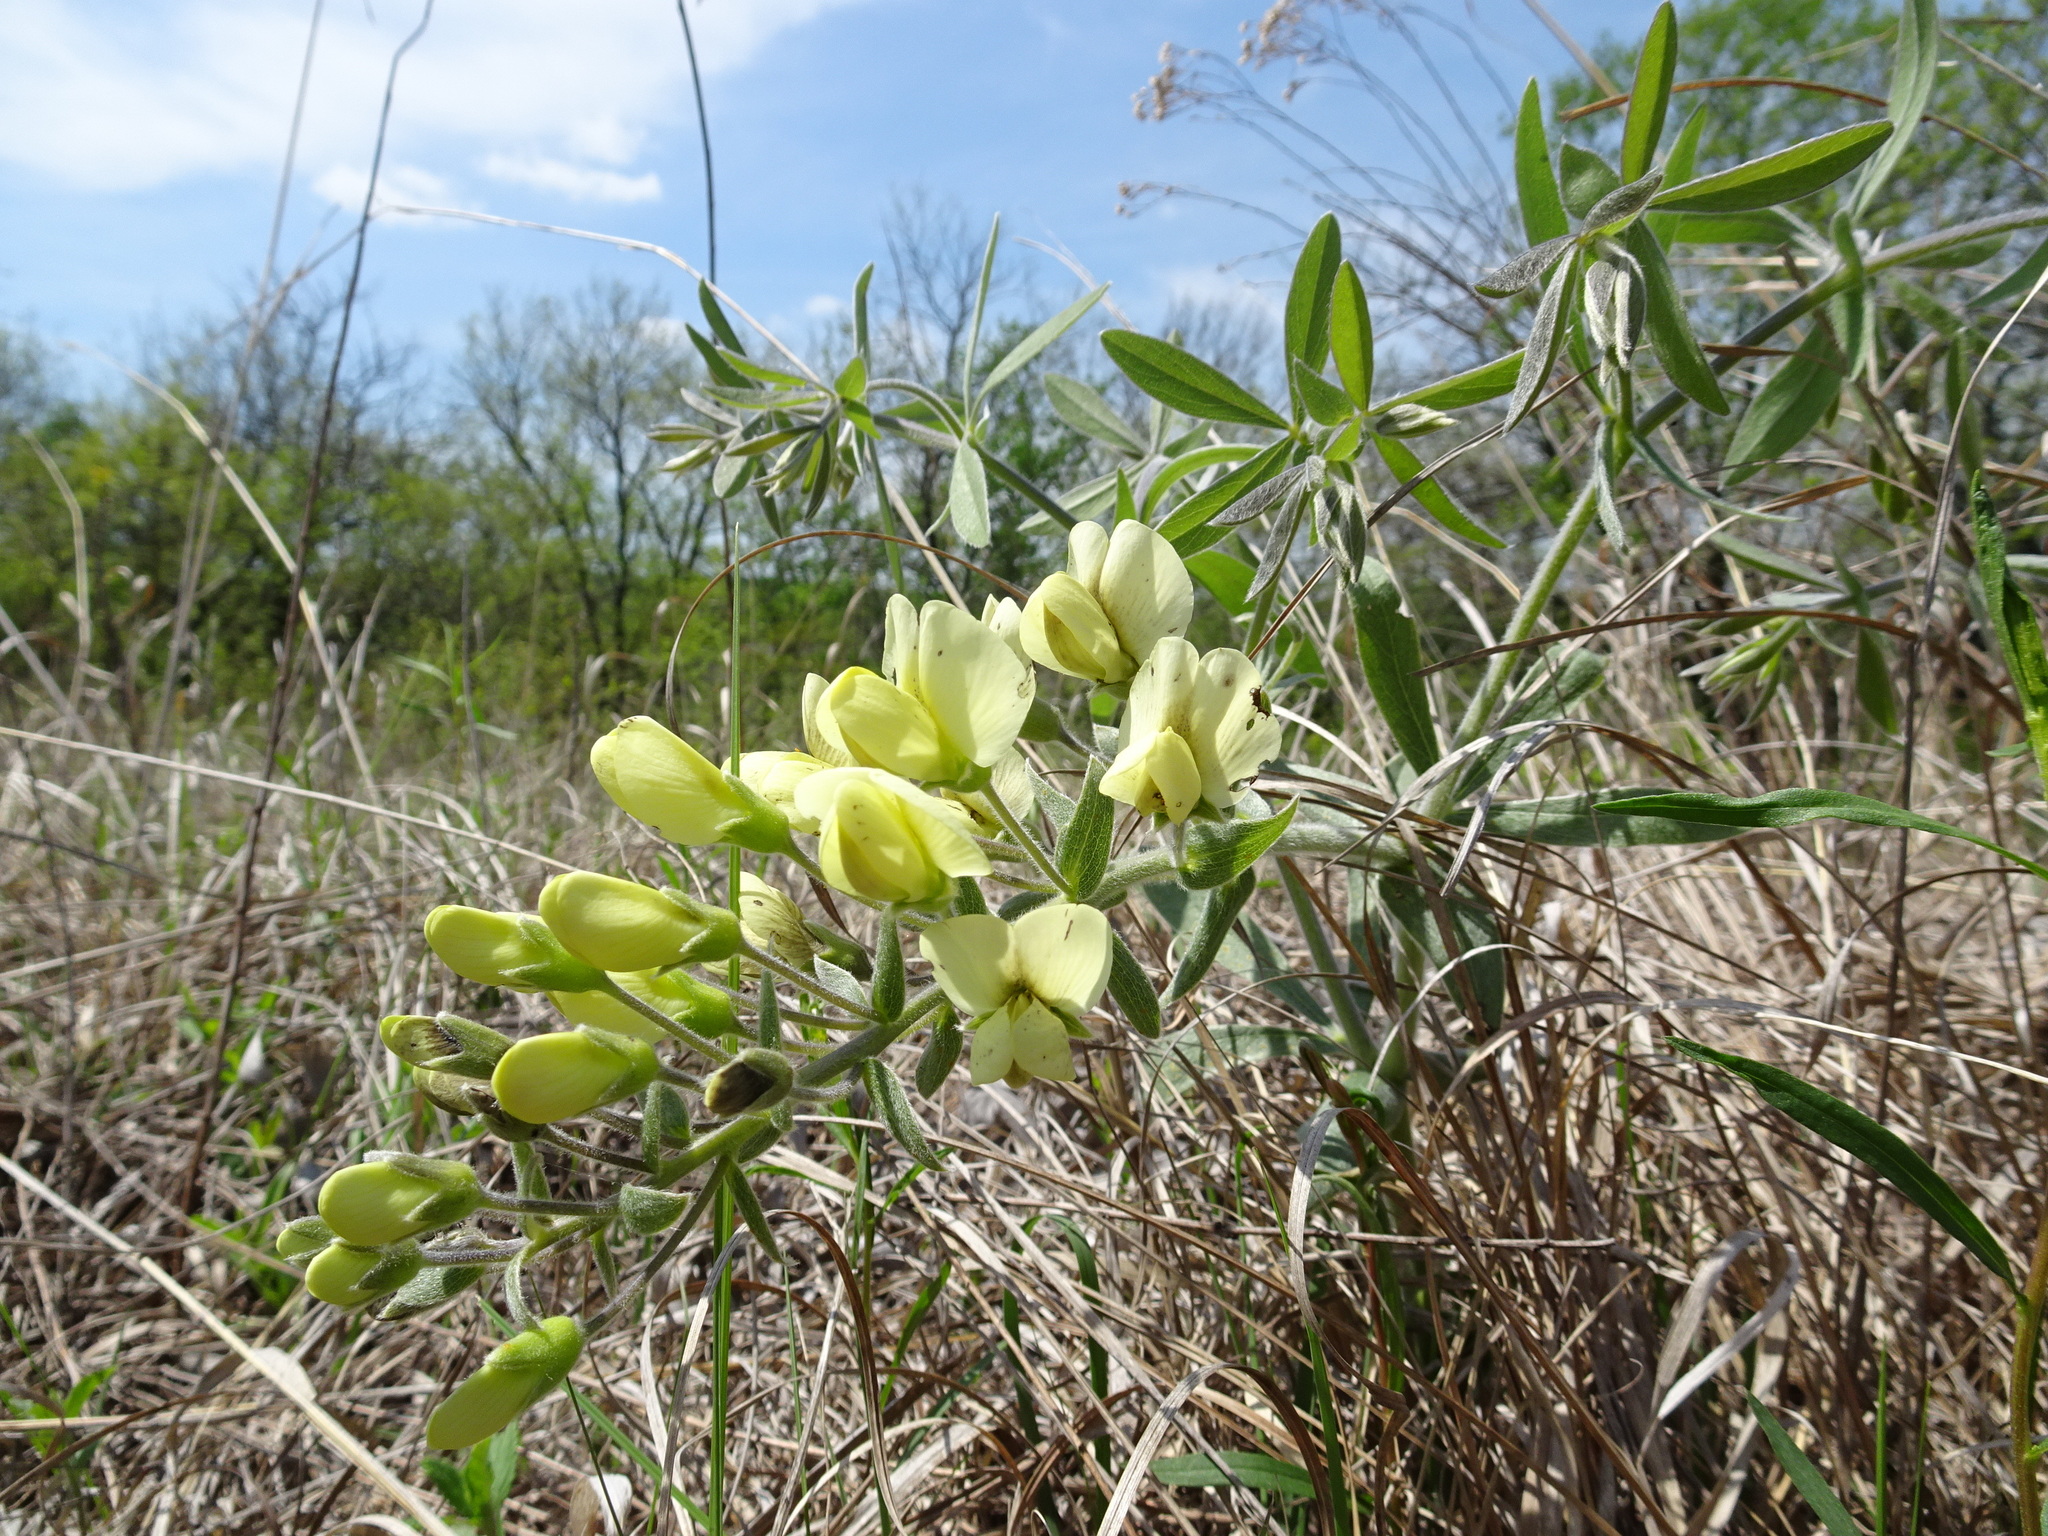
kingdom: Plantae
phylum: Tracheophyta
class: Magnoliopsida
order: Fabales
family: Fabaceae
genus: Baptisia
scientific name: Baptisia bracteata
